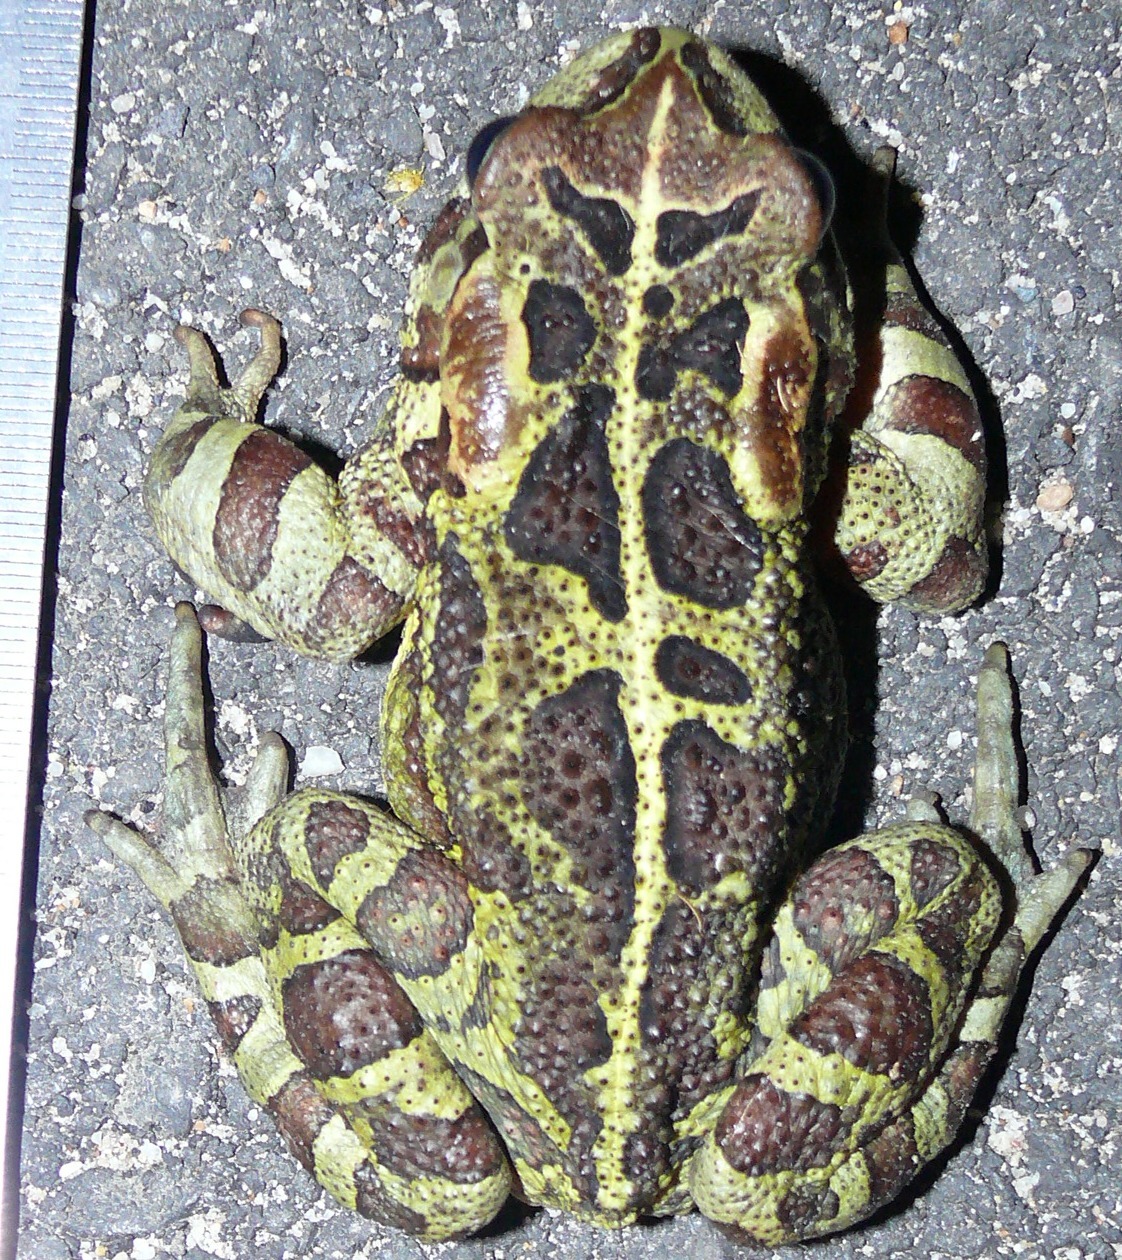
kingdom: Animalia
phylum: Chordata
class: Amphibia
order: Anura
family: Bufonidae
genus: Sclerophrys
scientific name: Sclerophrys pantherina
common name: Panther toad
